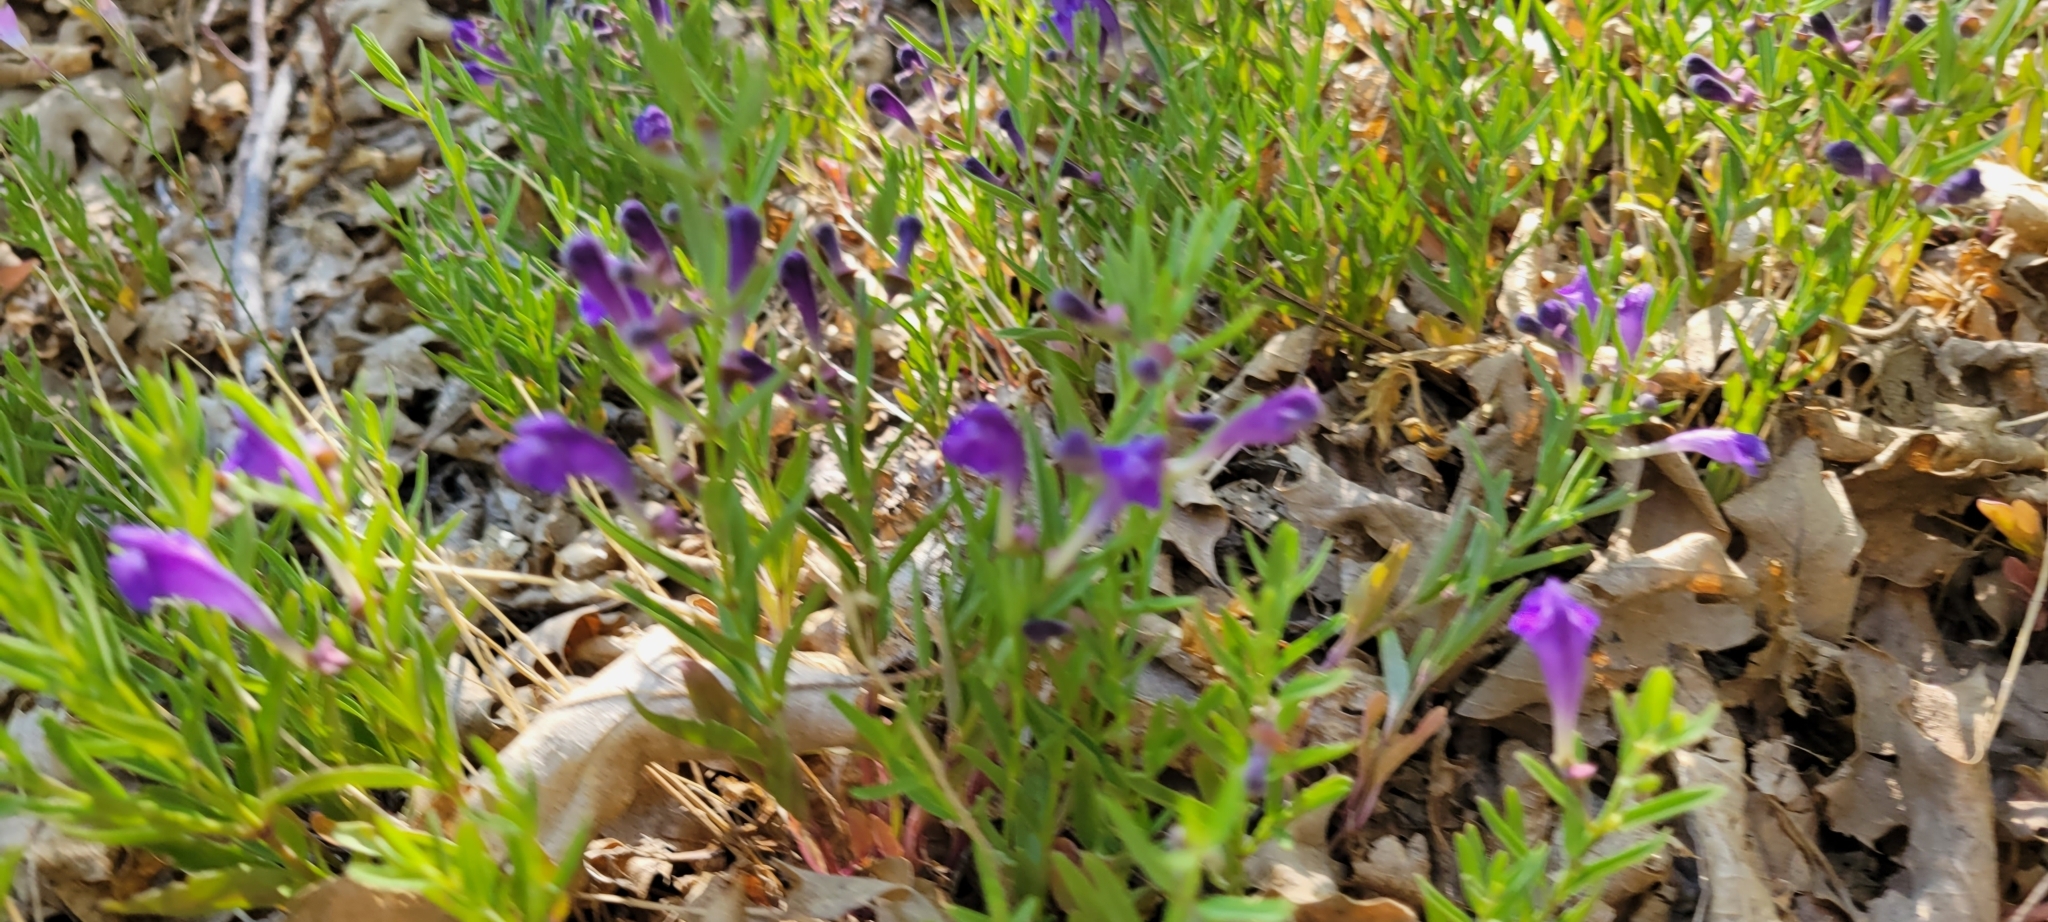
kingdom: Plantae
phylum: Tracheophyta
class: Magnoliopsida
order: Lamiales
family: Lamiaceae
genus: Scutellaria
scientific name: Scutellaria siphocampyloides
